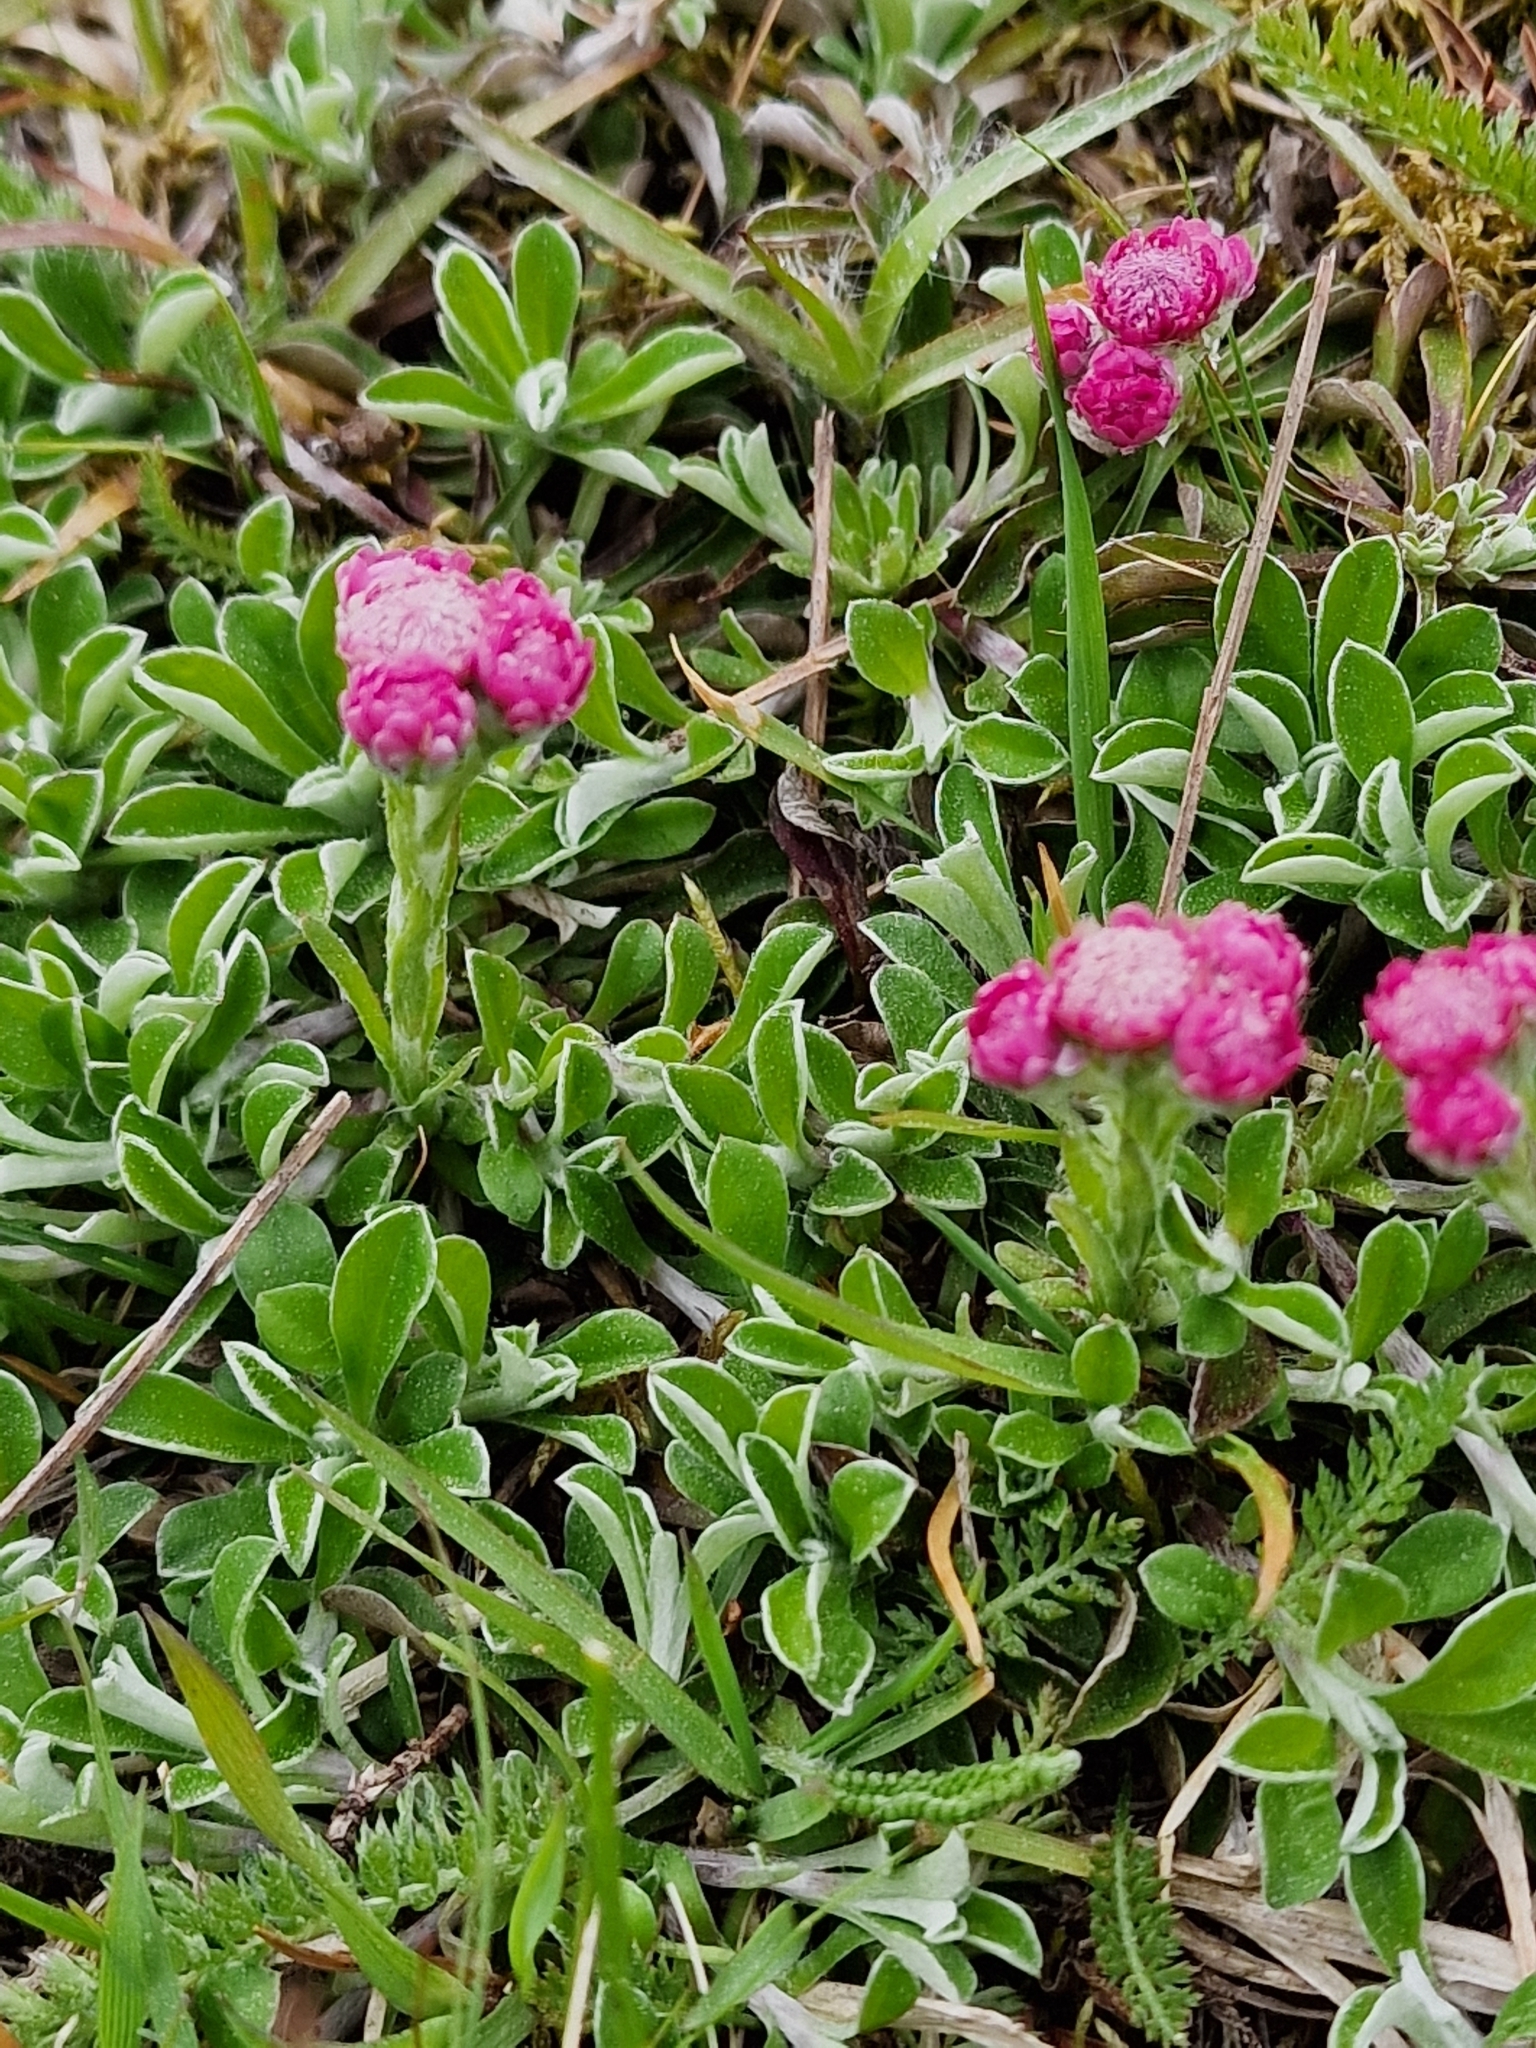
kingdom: Plantae
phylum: Tracheophyta
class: Magnoliopsida
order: Asterales
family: Asteraceae
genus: Antennaria
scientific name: Antennaria dioica
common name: Mountain everlasting
